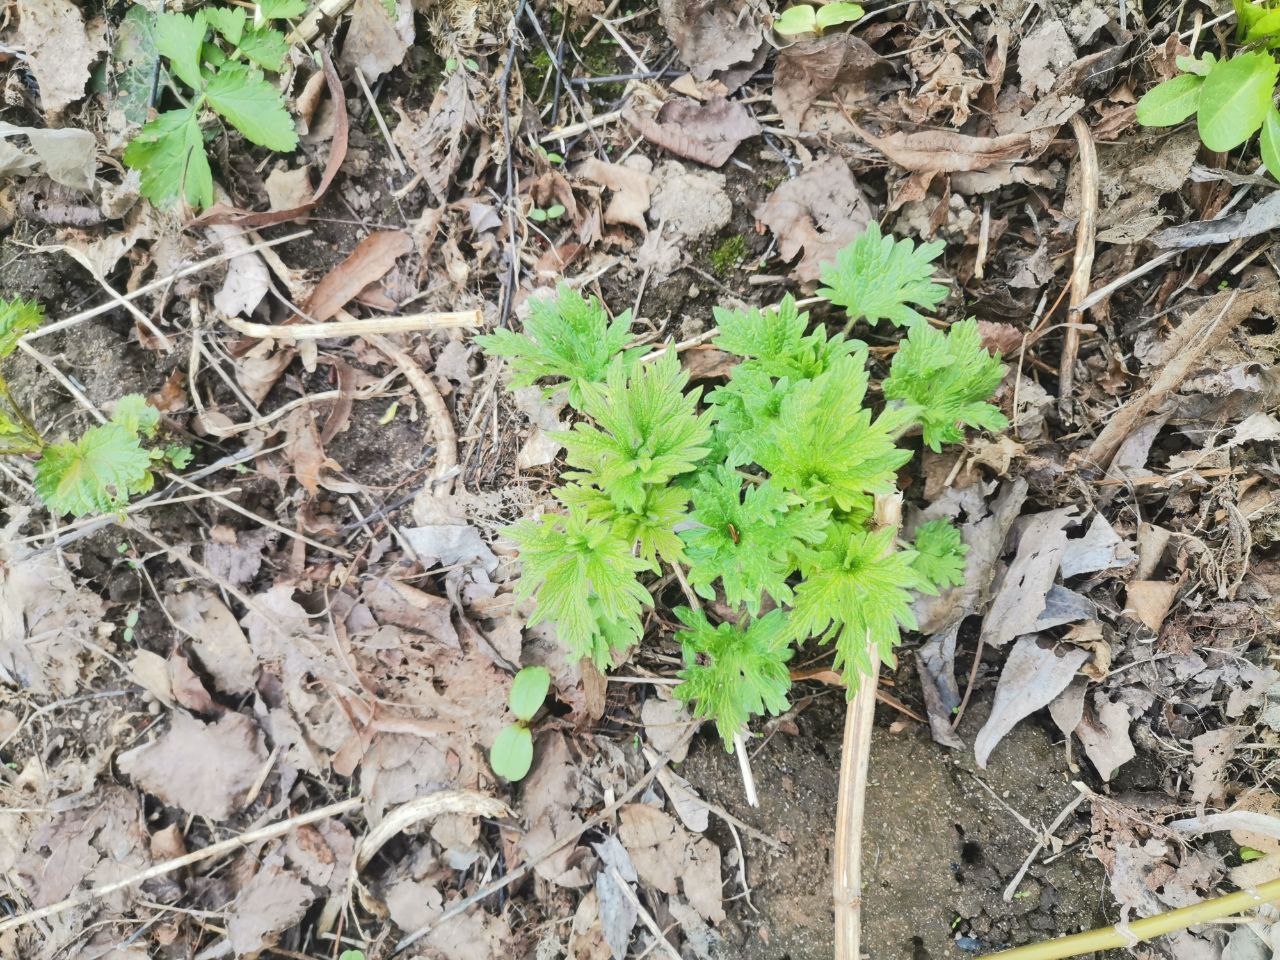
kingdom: Plantae
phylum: Tracheophyta
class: Magnoliopsida
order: Lamiales
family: Lamiaceae
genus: Leonurus
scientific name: Leonurus quinquelobatus
